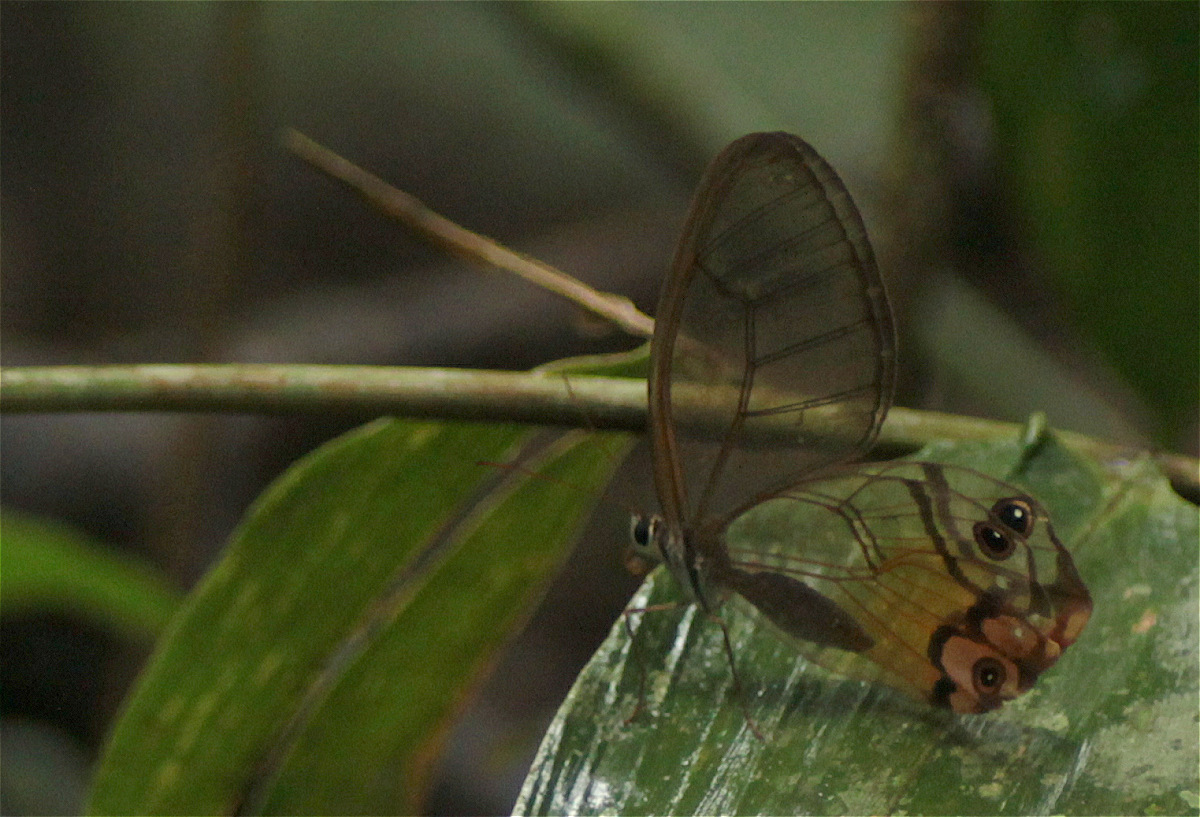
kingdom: Animalia
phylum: Arthropoda
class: Insecta
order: Lepidoptera
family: Nymphalidae
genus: Haetera
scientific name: Haetera piera
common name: Amber phantom
